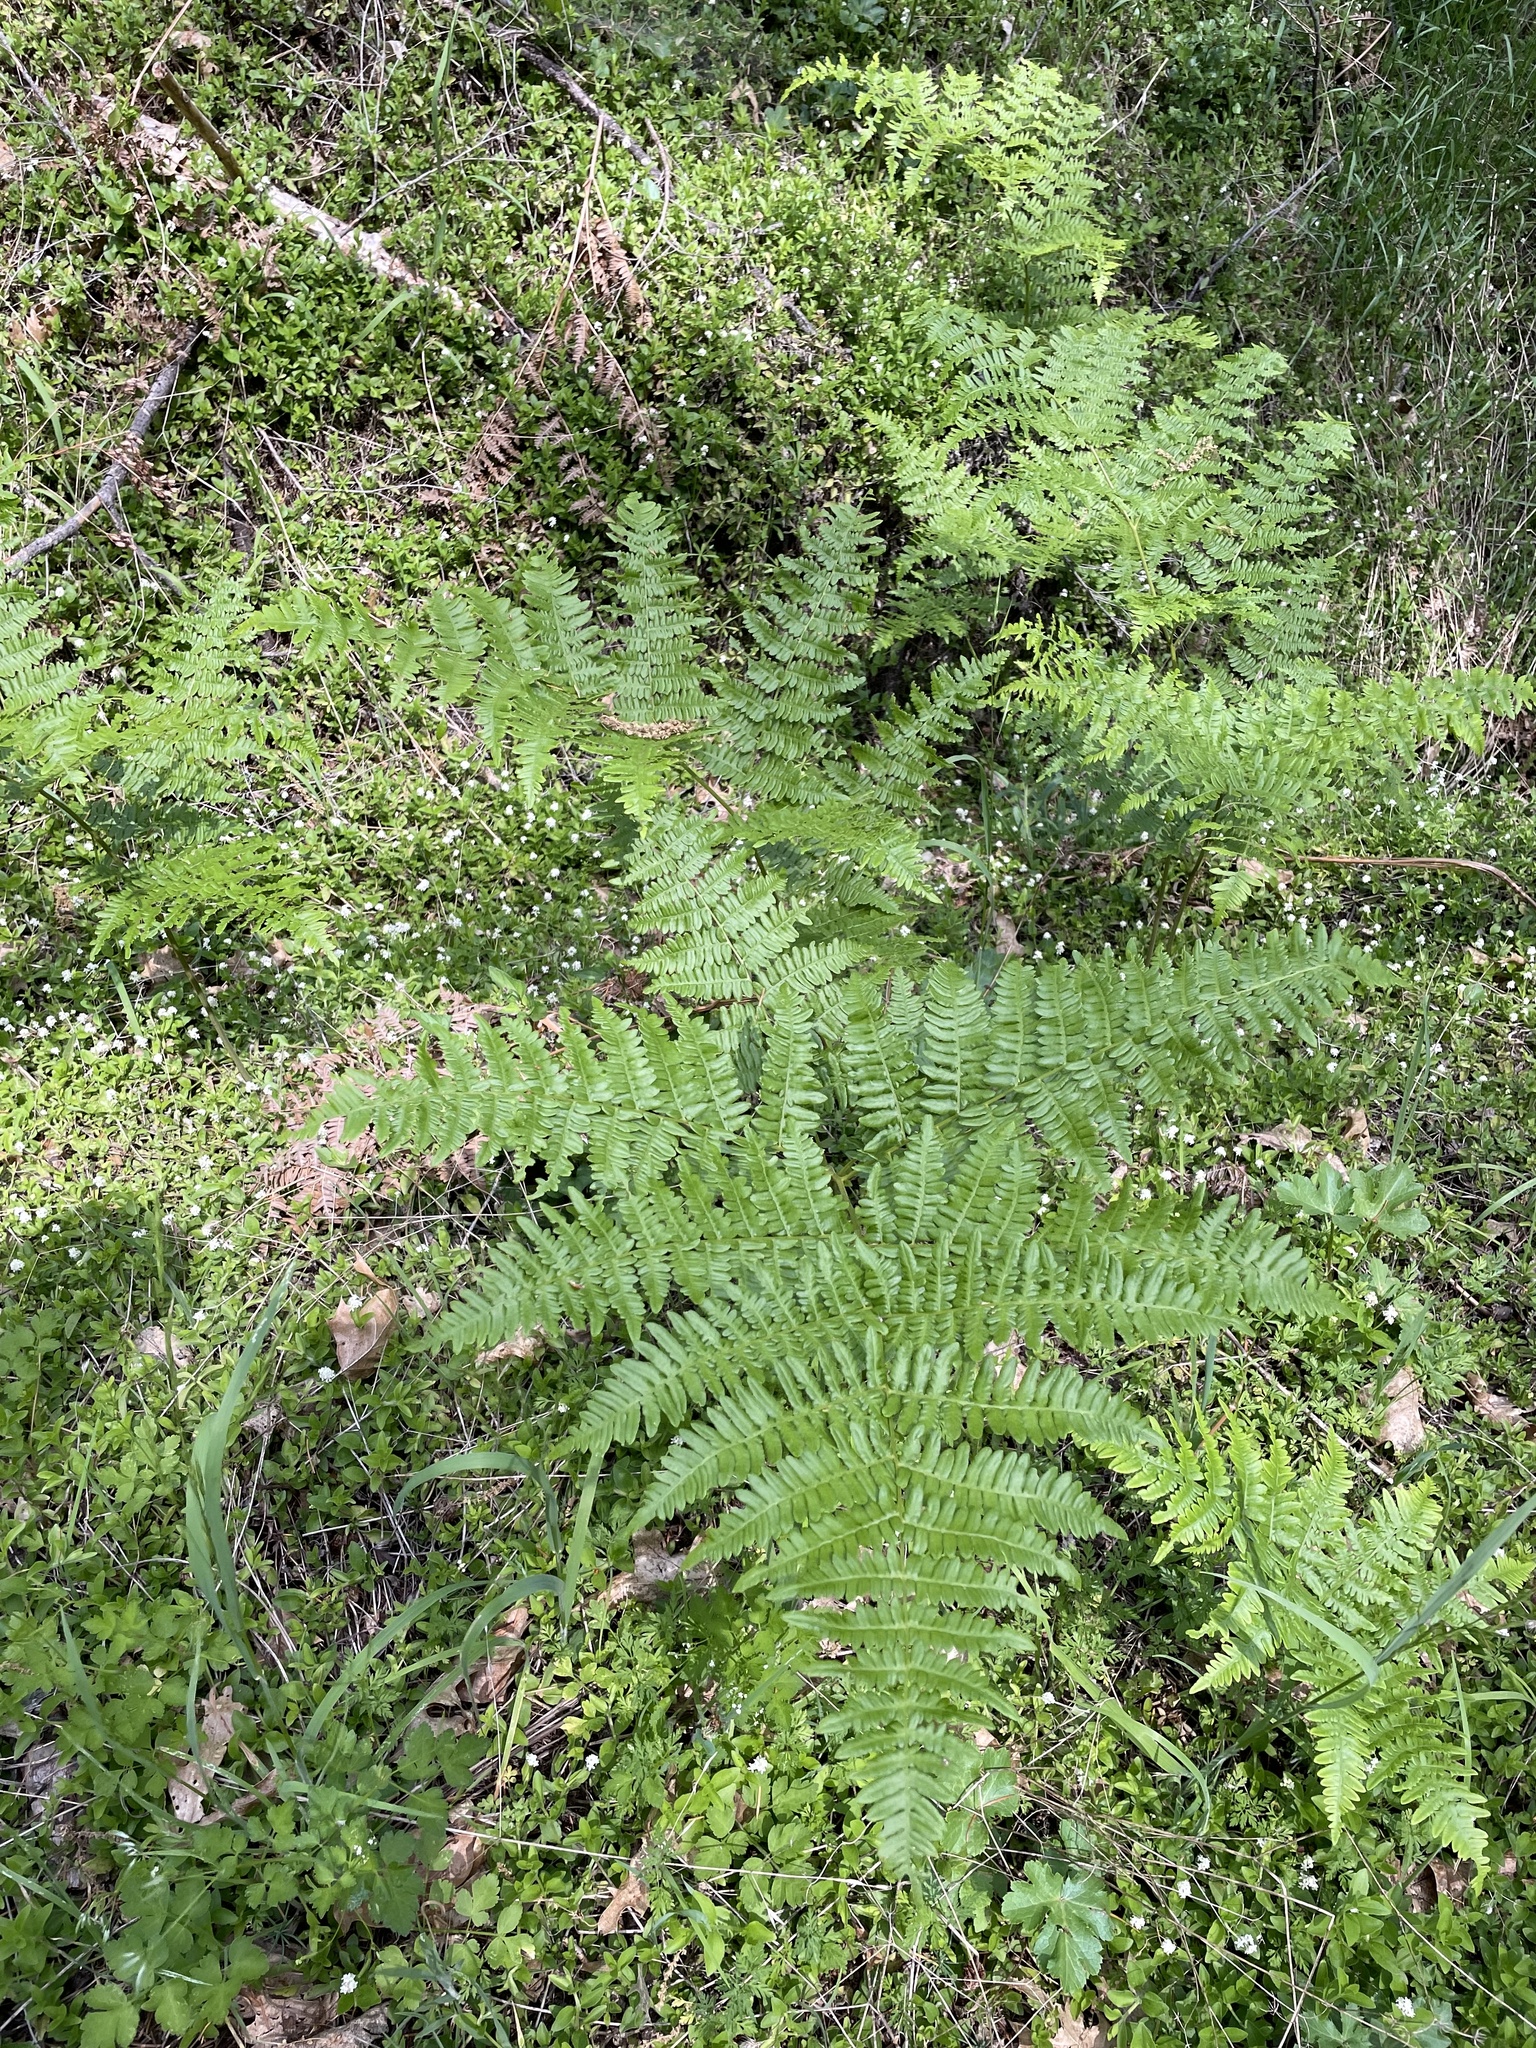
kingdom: Plantae
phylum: Tracheophyta
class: Polypodiopsida
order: Polypodiales
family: Dennstaedtiaceae
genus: Pteridium
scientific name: Pteridium aquilinum
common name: Bracken
